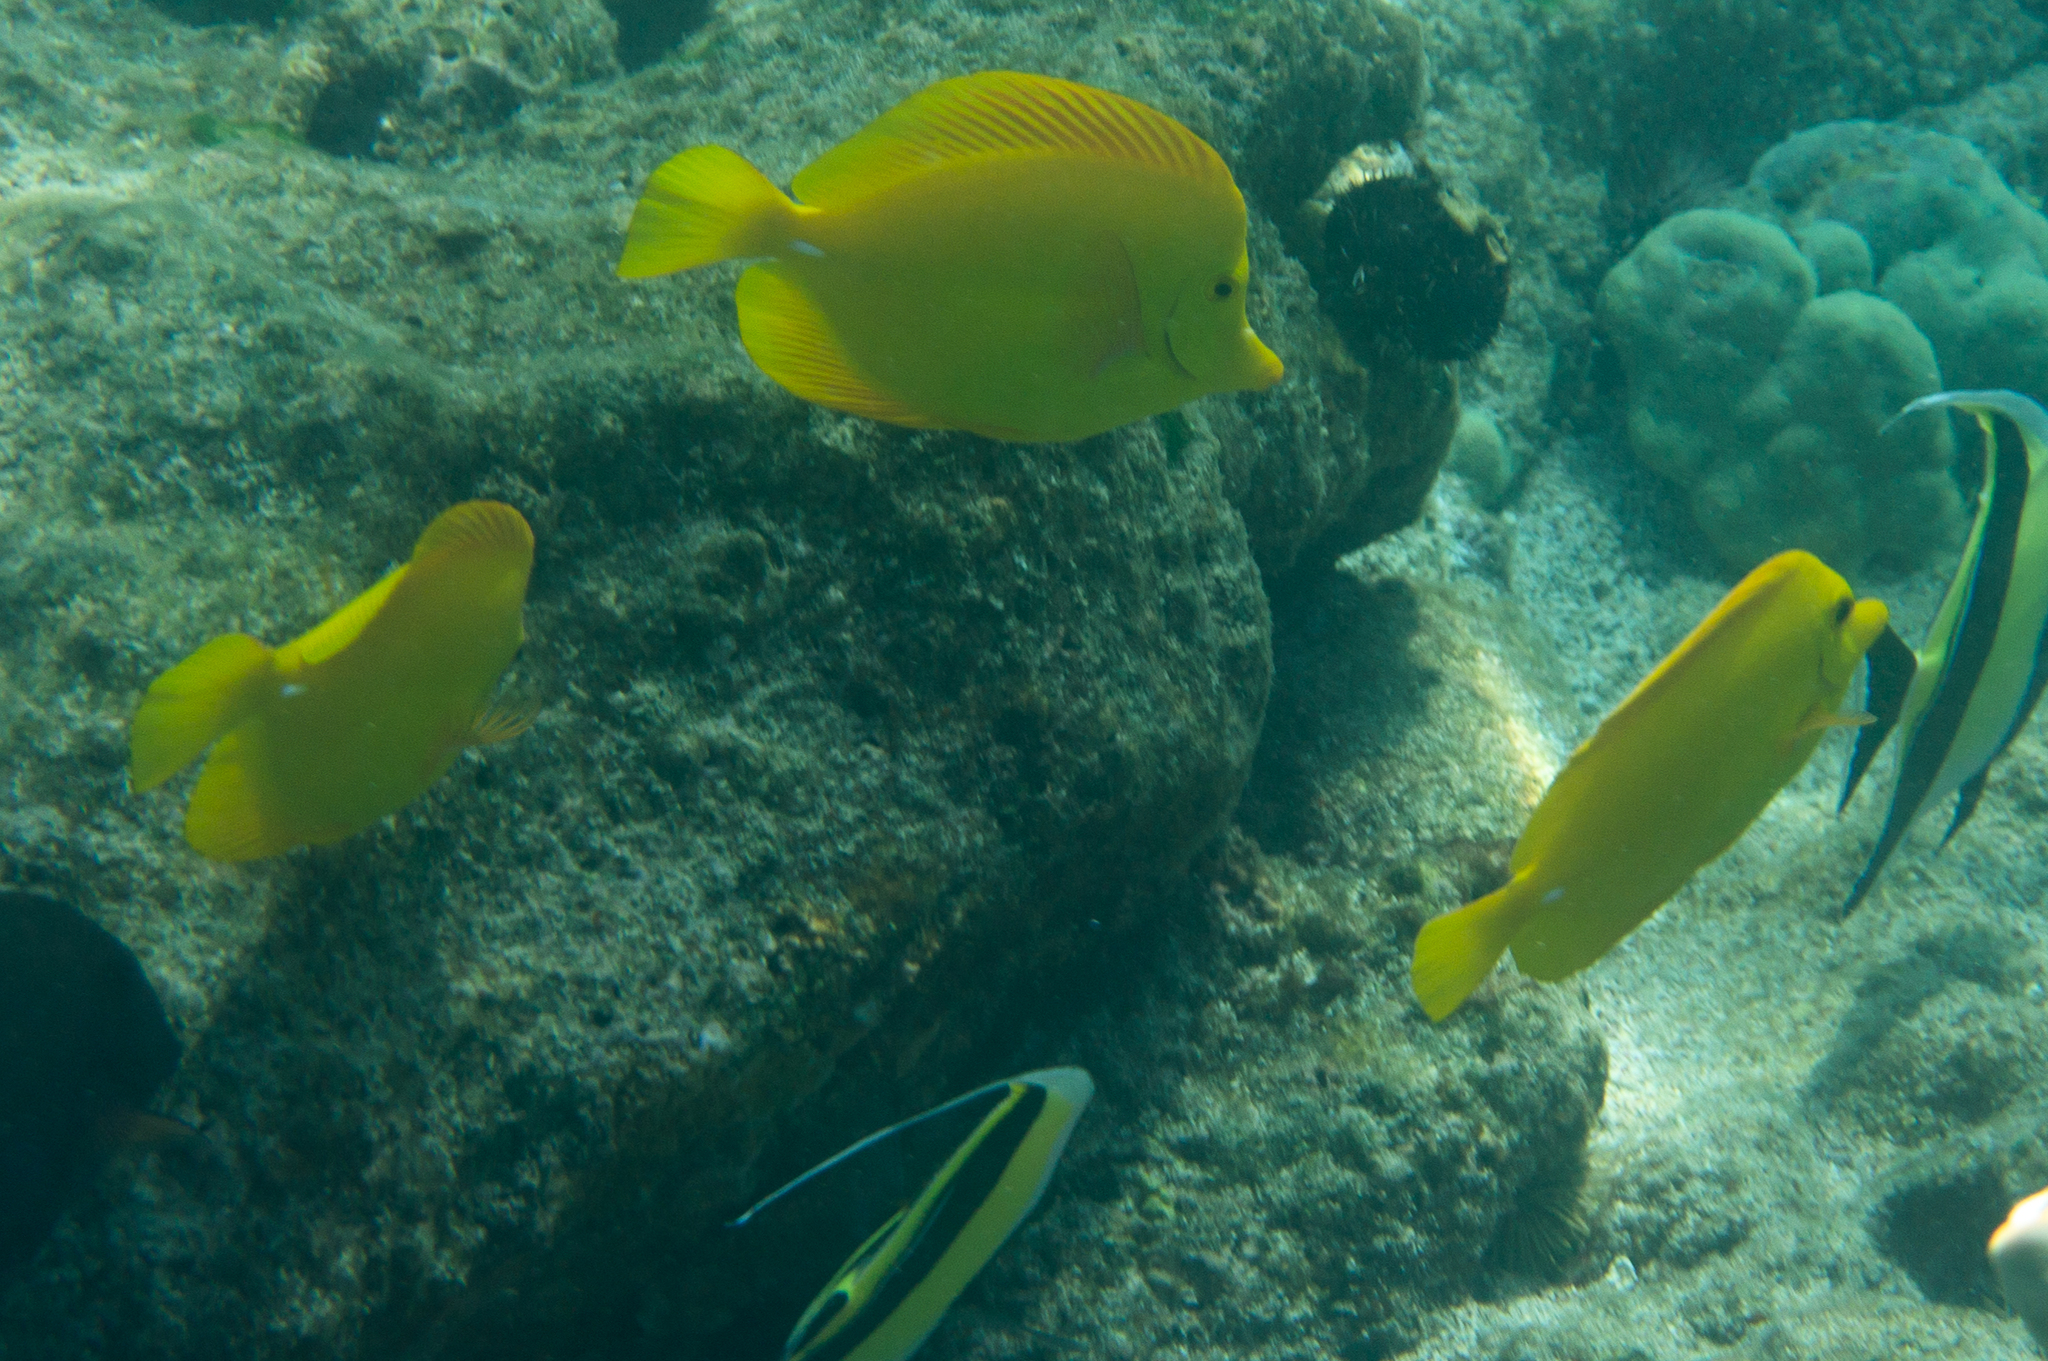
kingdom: Animalia
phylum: Chordata
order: Perciformes
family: Acanthuridae
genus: Zebrasoma
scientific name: Zebrasoma flavescens
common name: Yellow tang
